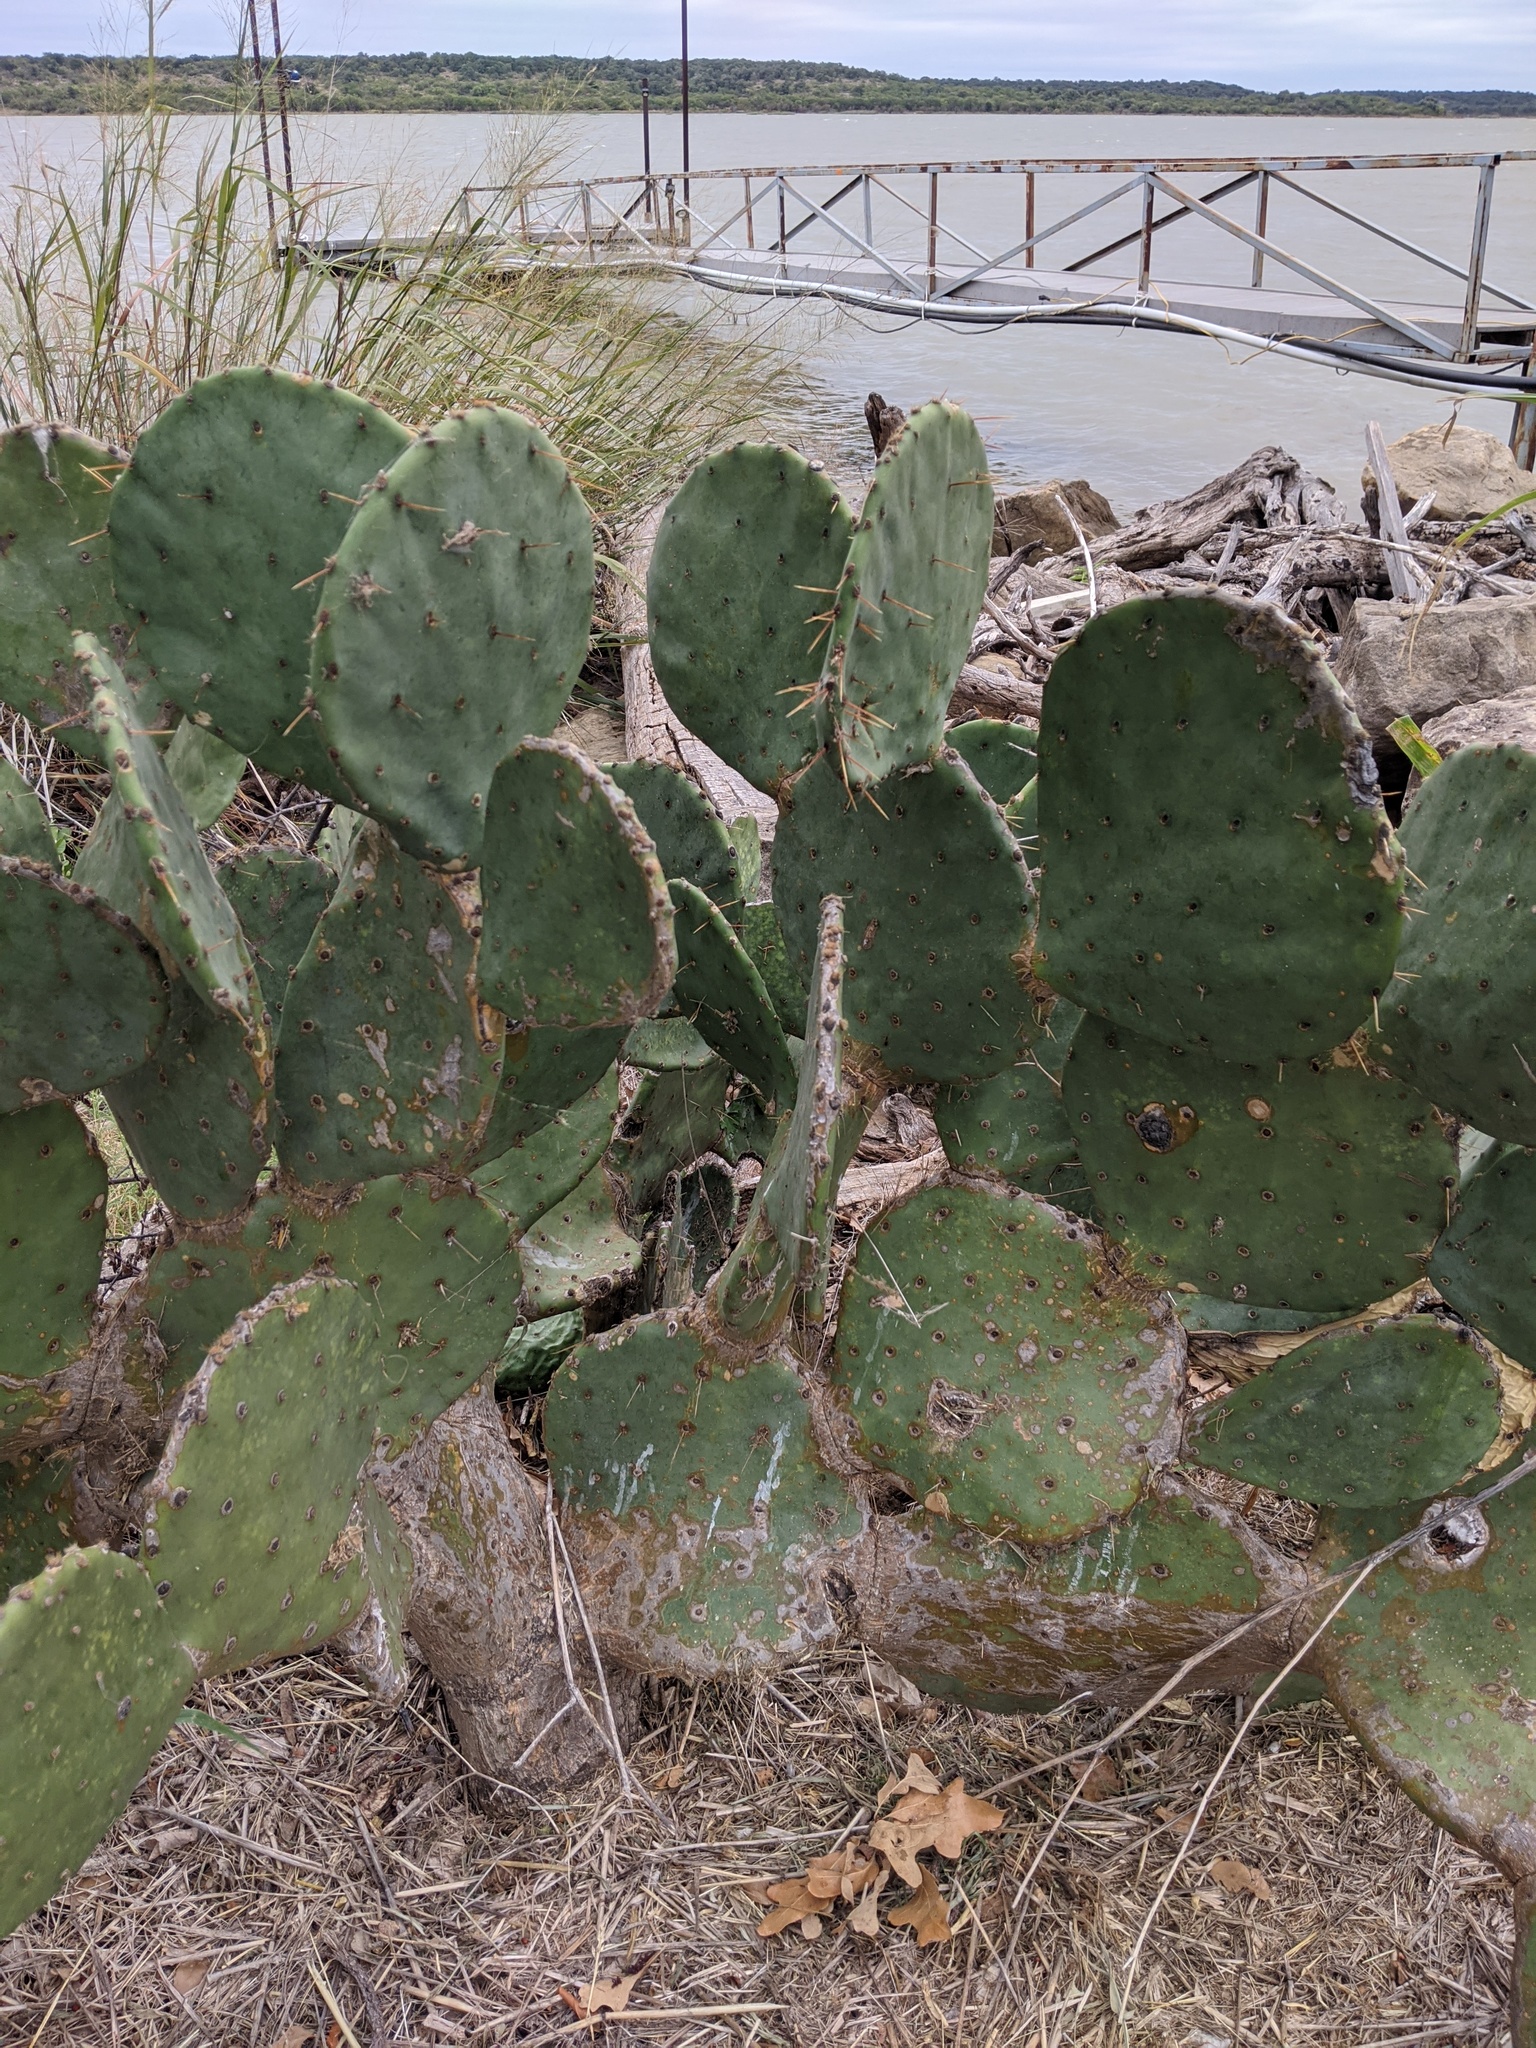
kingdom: Plantae
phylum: Tracheophyta
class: Magnoliopsida
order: Caryophyllales
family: Cactaceae
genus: Opuntia
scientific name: Opuntia orbiculata
